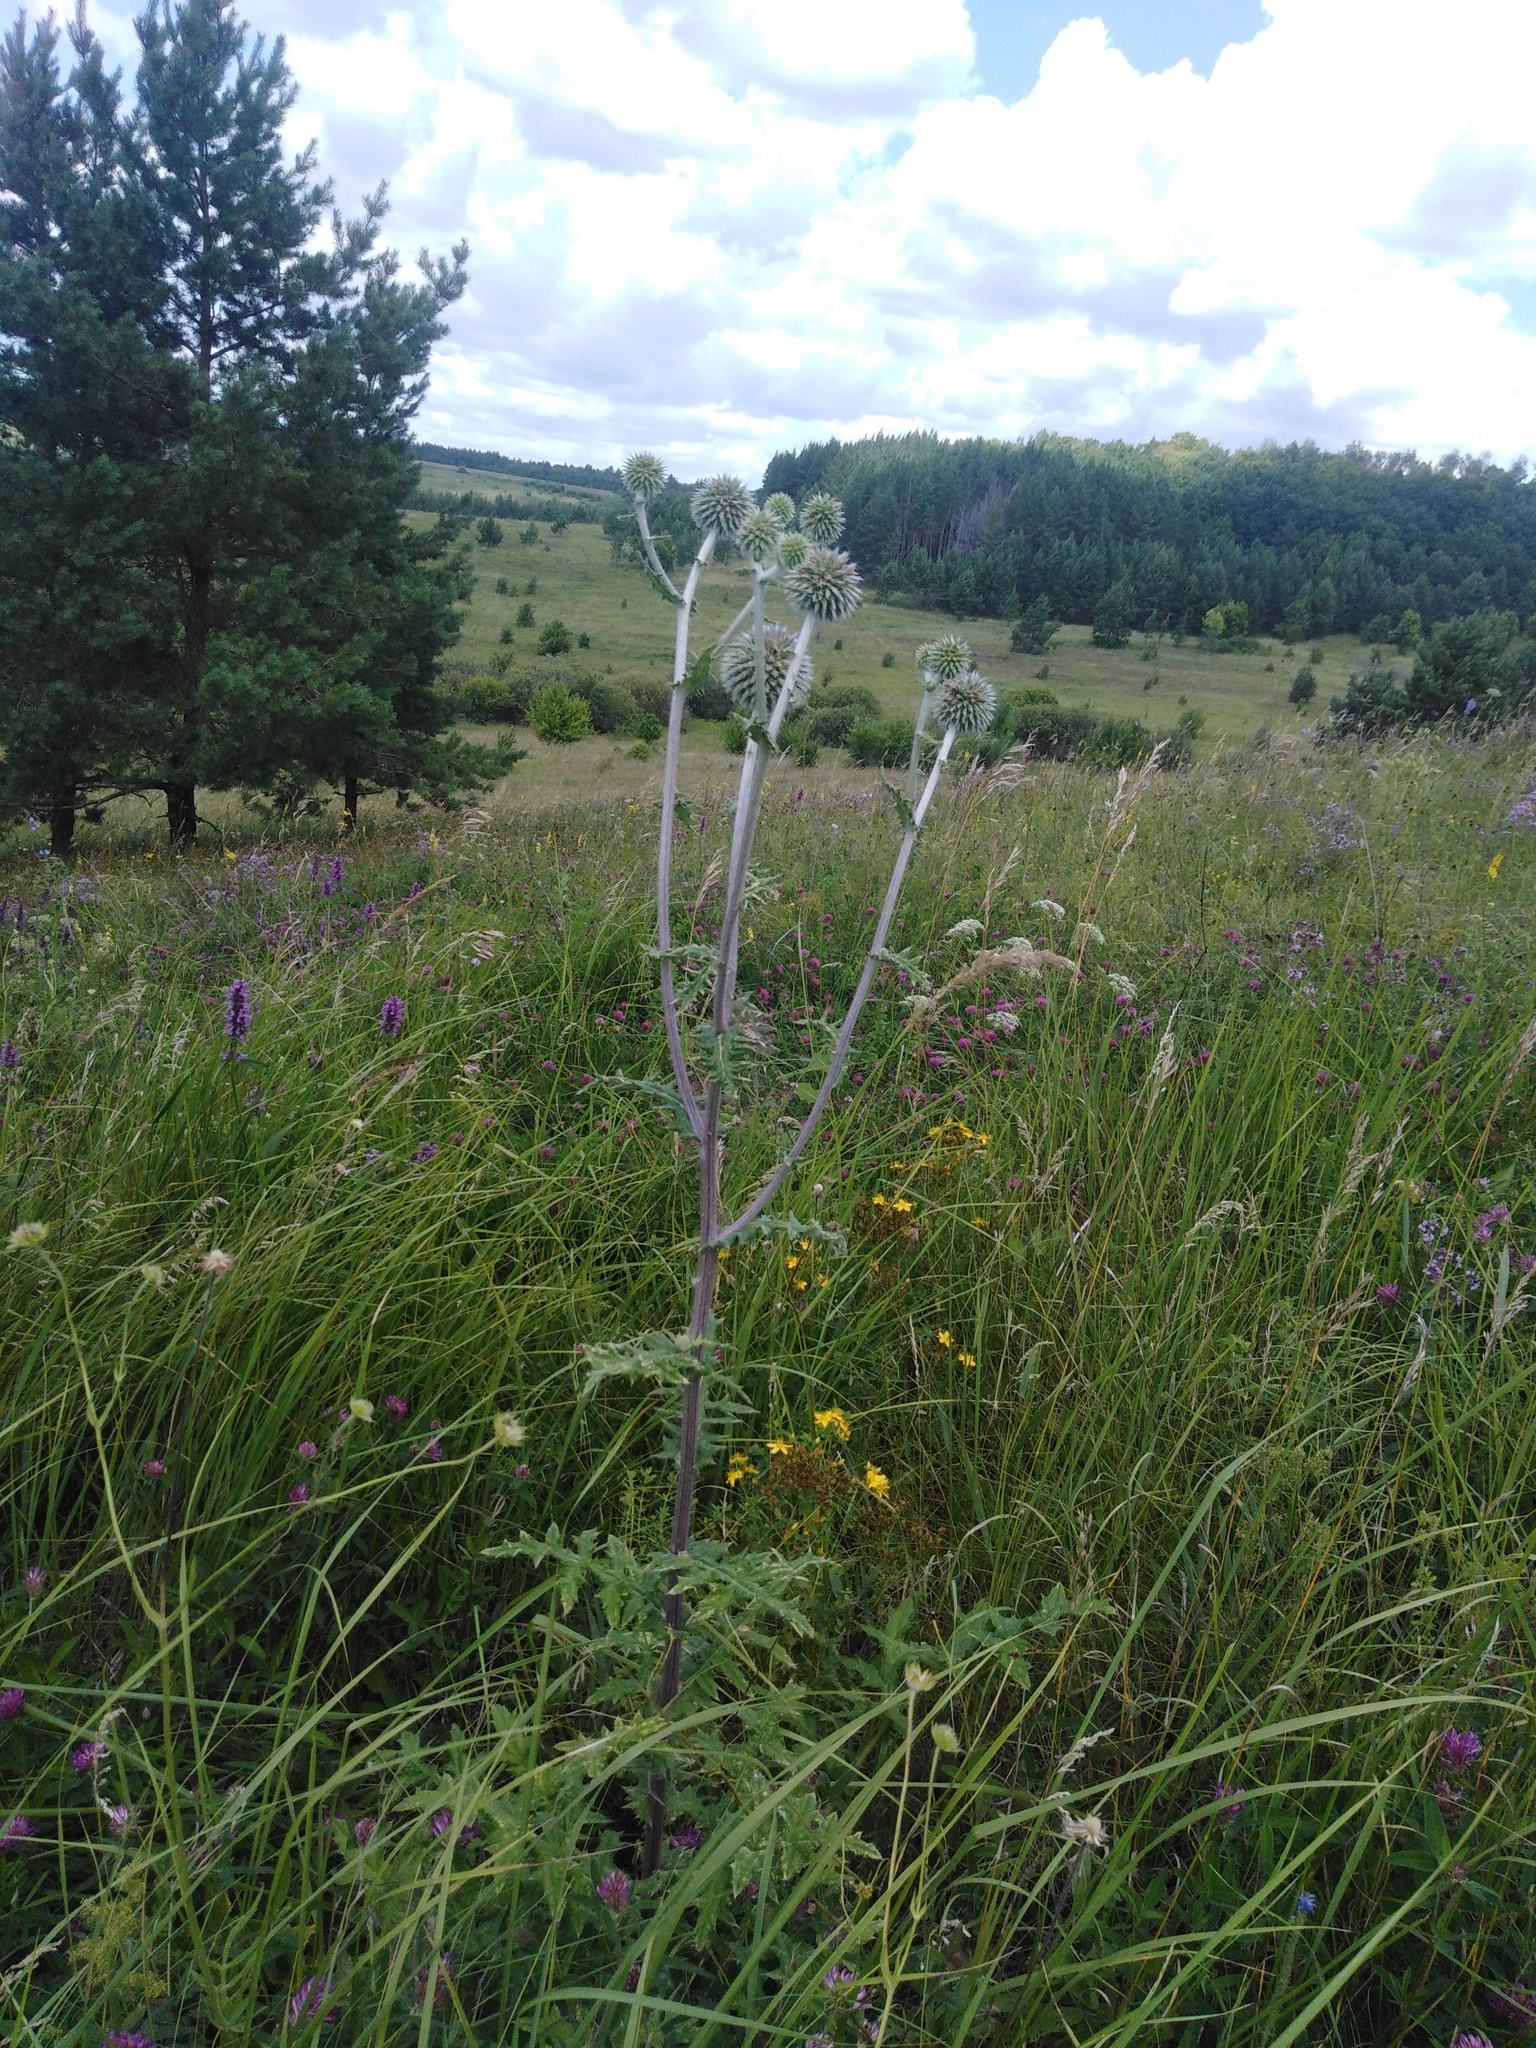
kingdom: Plantae
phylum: Tracheophyta
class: Magnoliopsida
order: Asterales
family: Asteraceae
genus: Echinops
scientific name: Echinops sphaerocephalus
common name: Glandular globe-thistle
